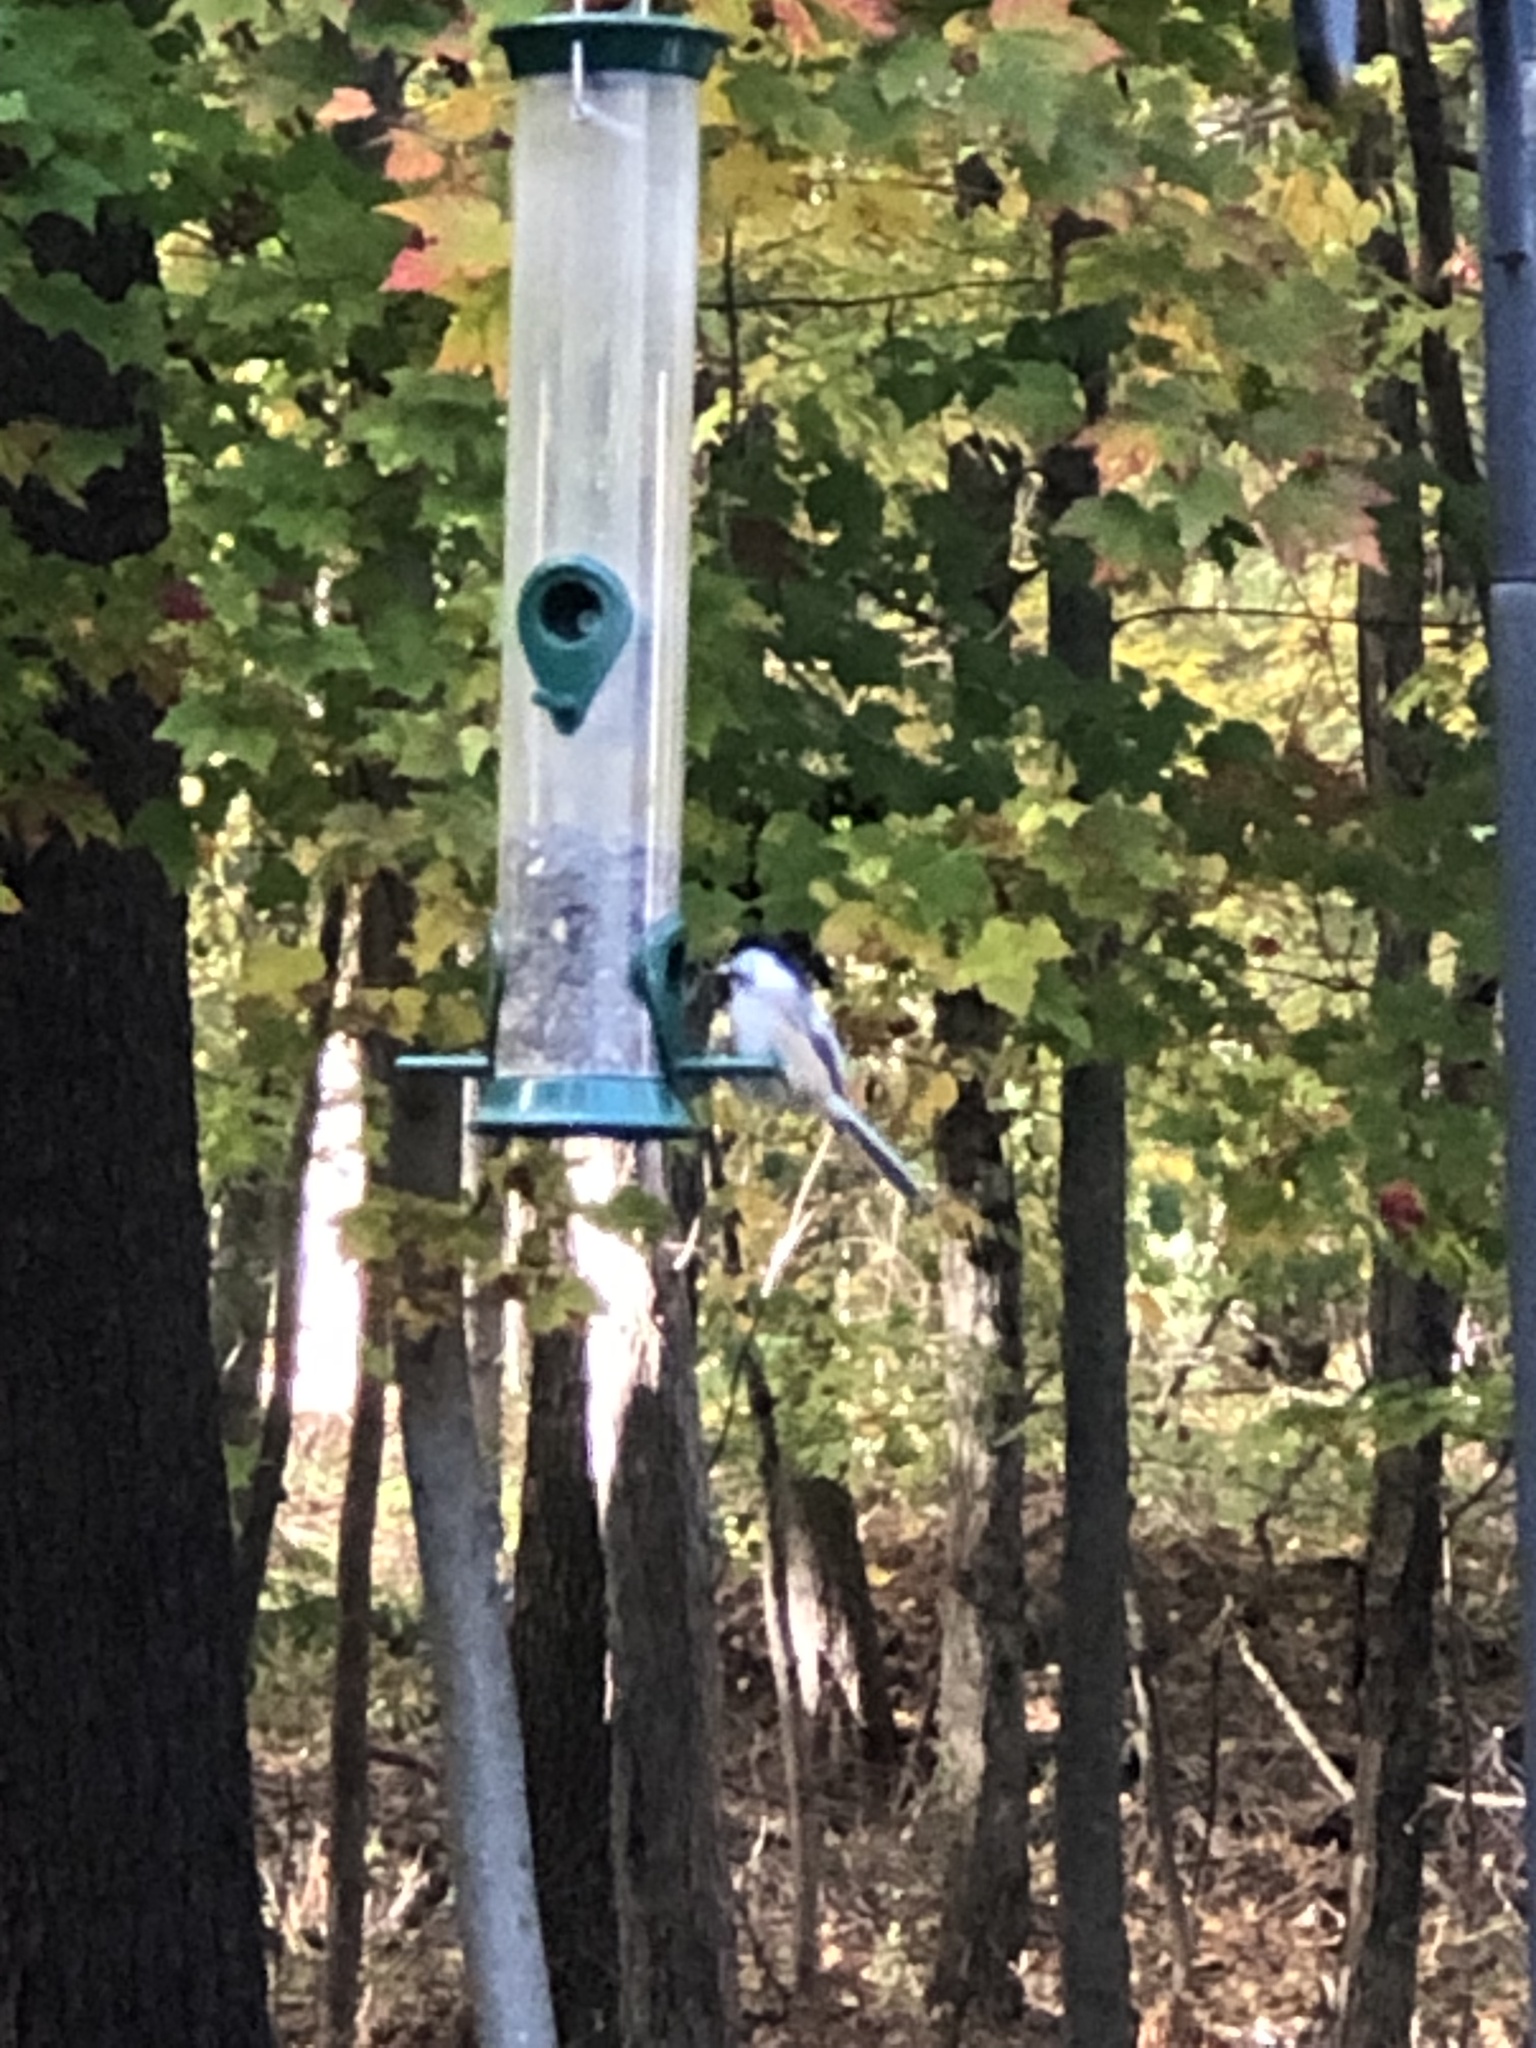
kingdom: Animalia
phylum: Chordata
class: Aves
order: Passeriformes
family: Paridae
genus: Poecile
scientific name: Poecile atricapillus
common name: Black-capped chickadee
